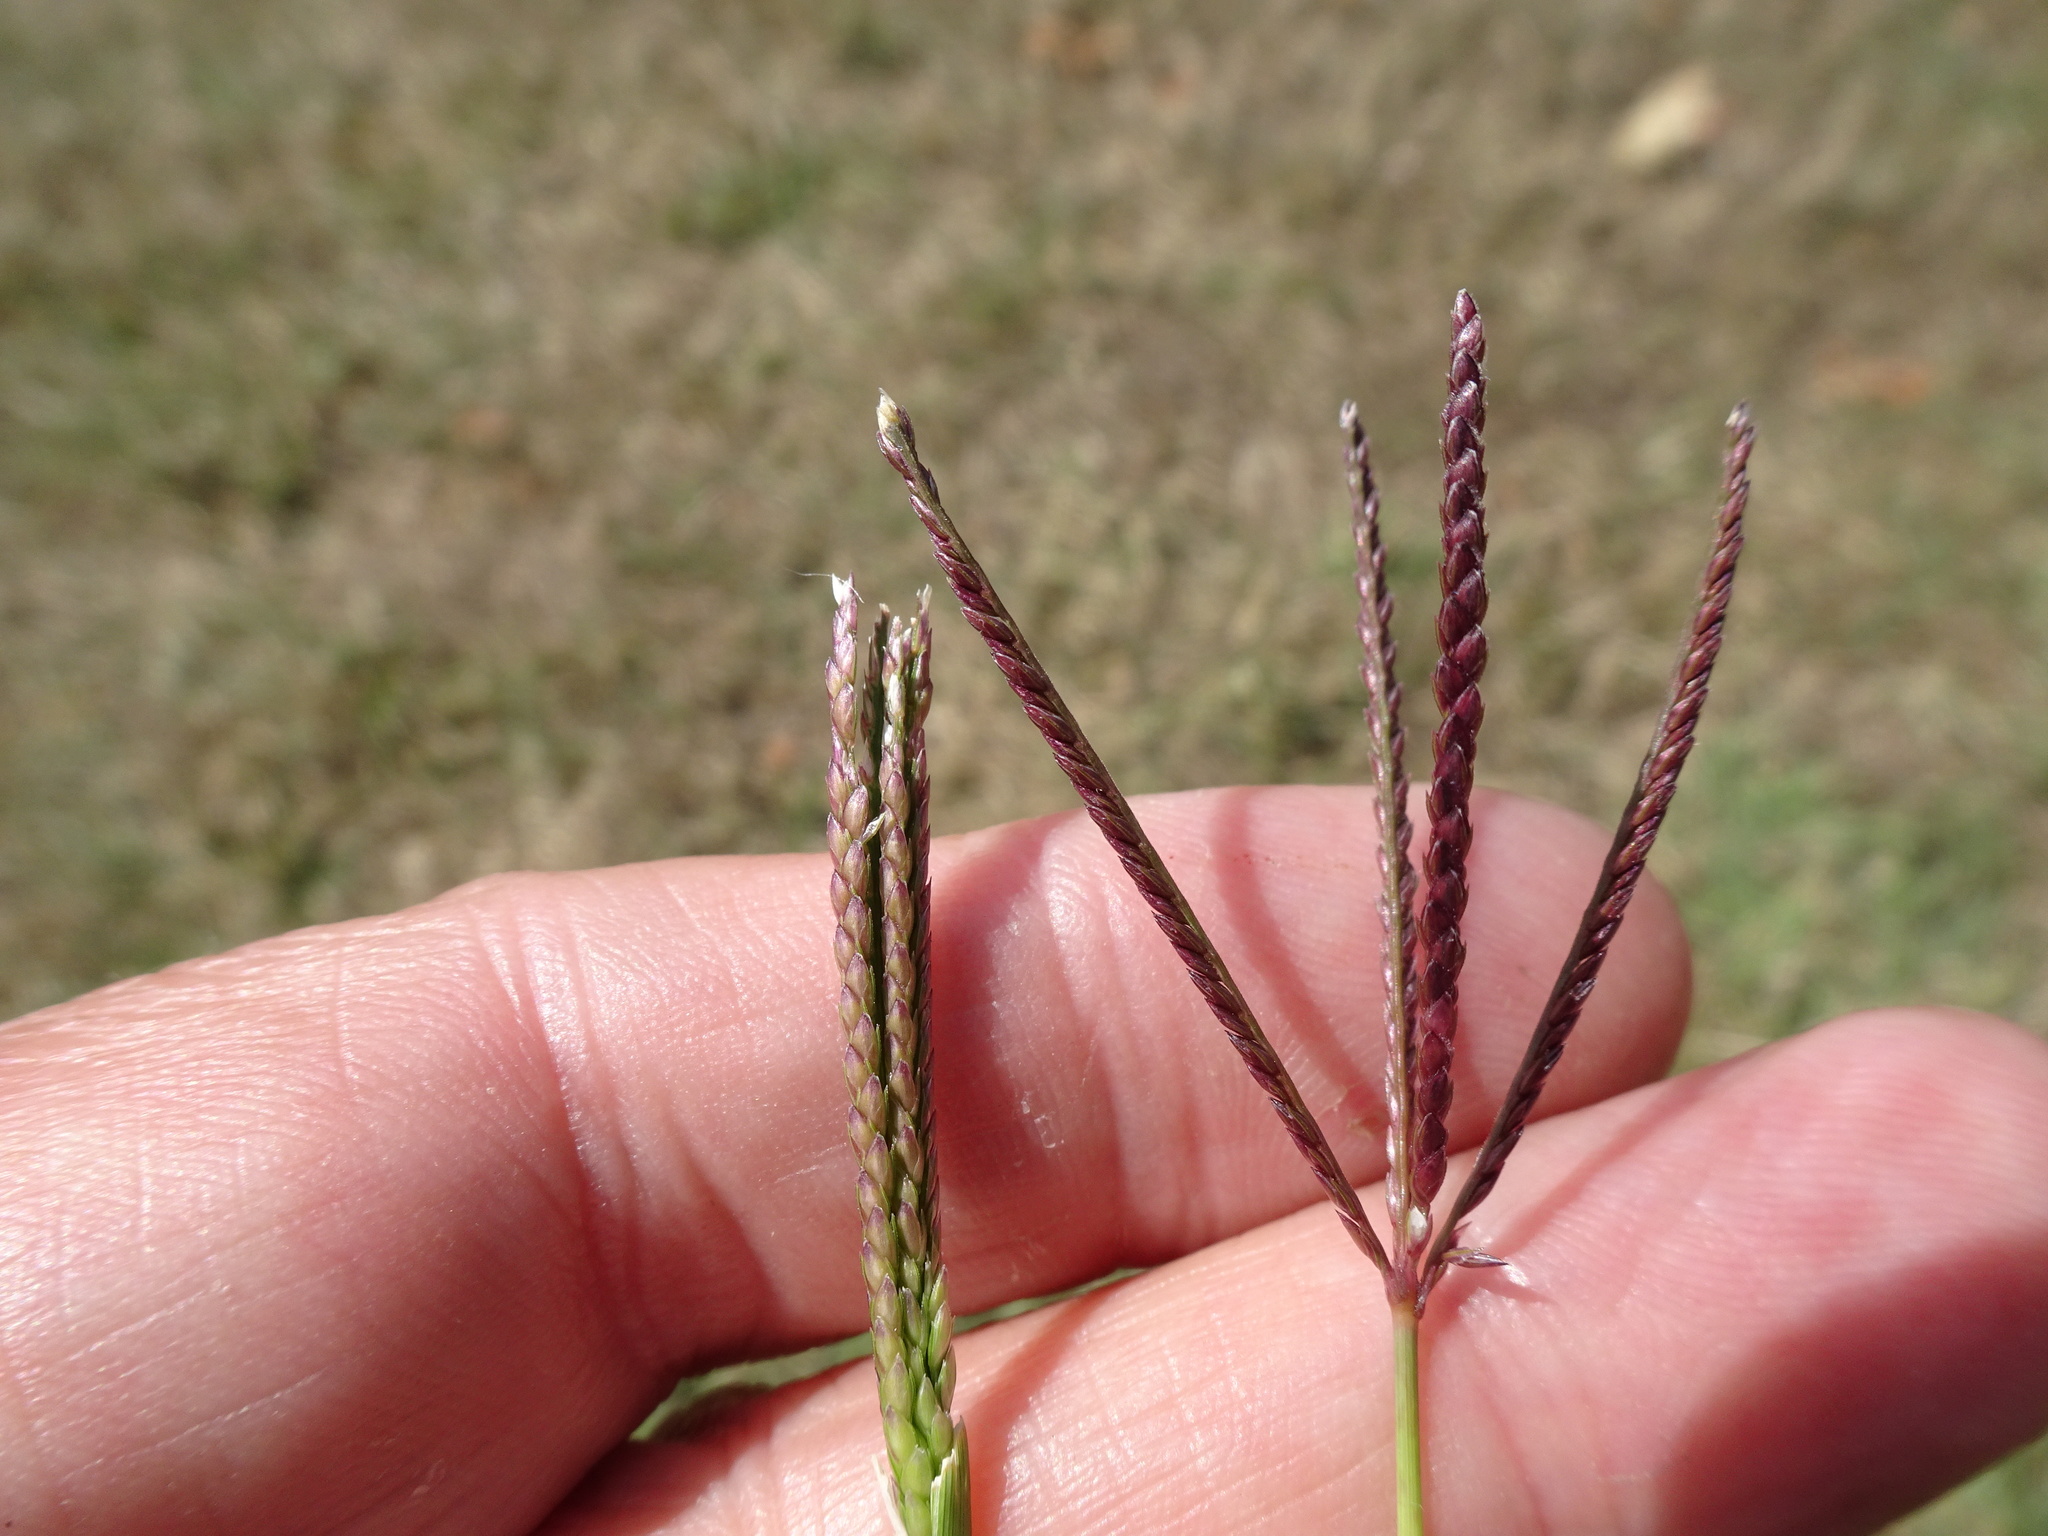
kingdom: Plantae
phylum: Tracheophyta
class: Liliopsida
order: Poales
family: Poaceae
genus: Cynodon
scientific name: Cynodon dactylon
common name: Bermuda grass
